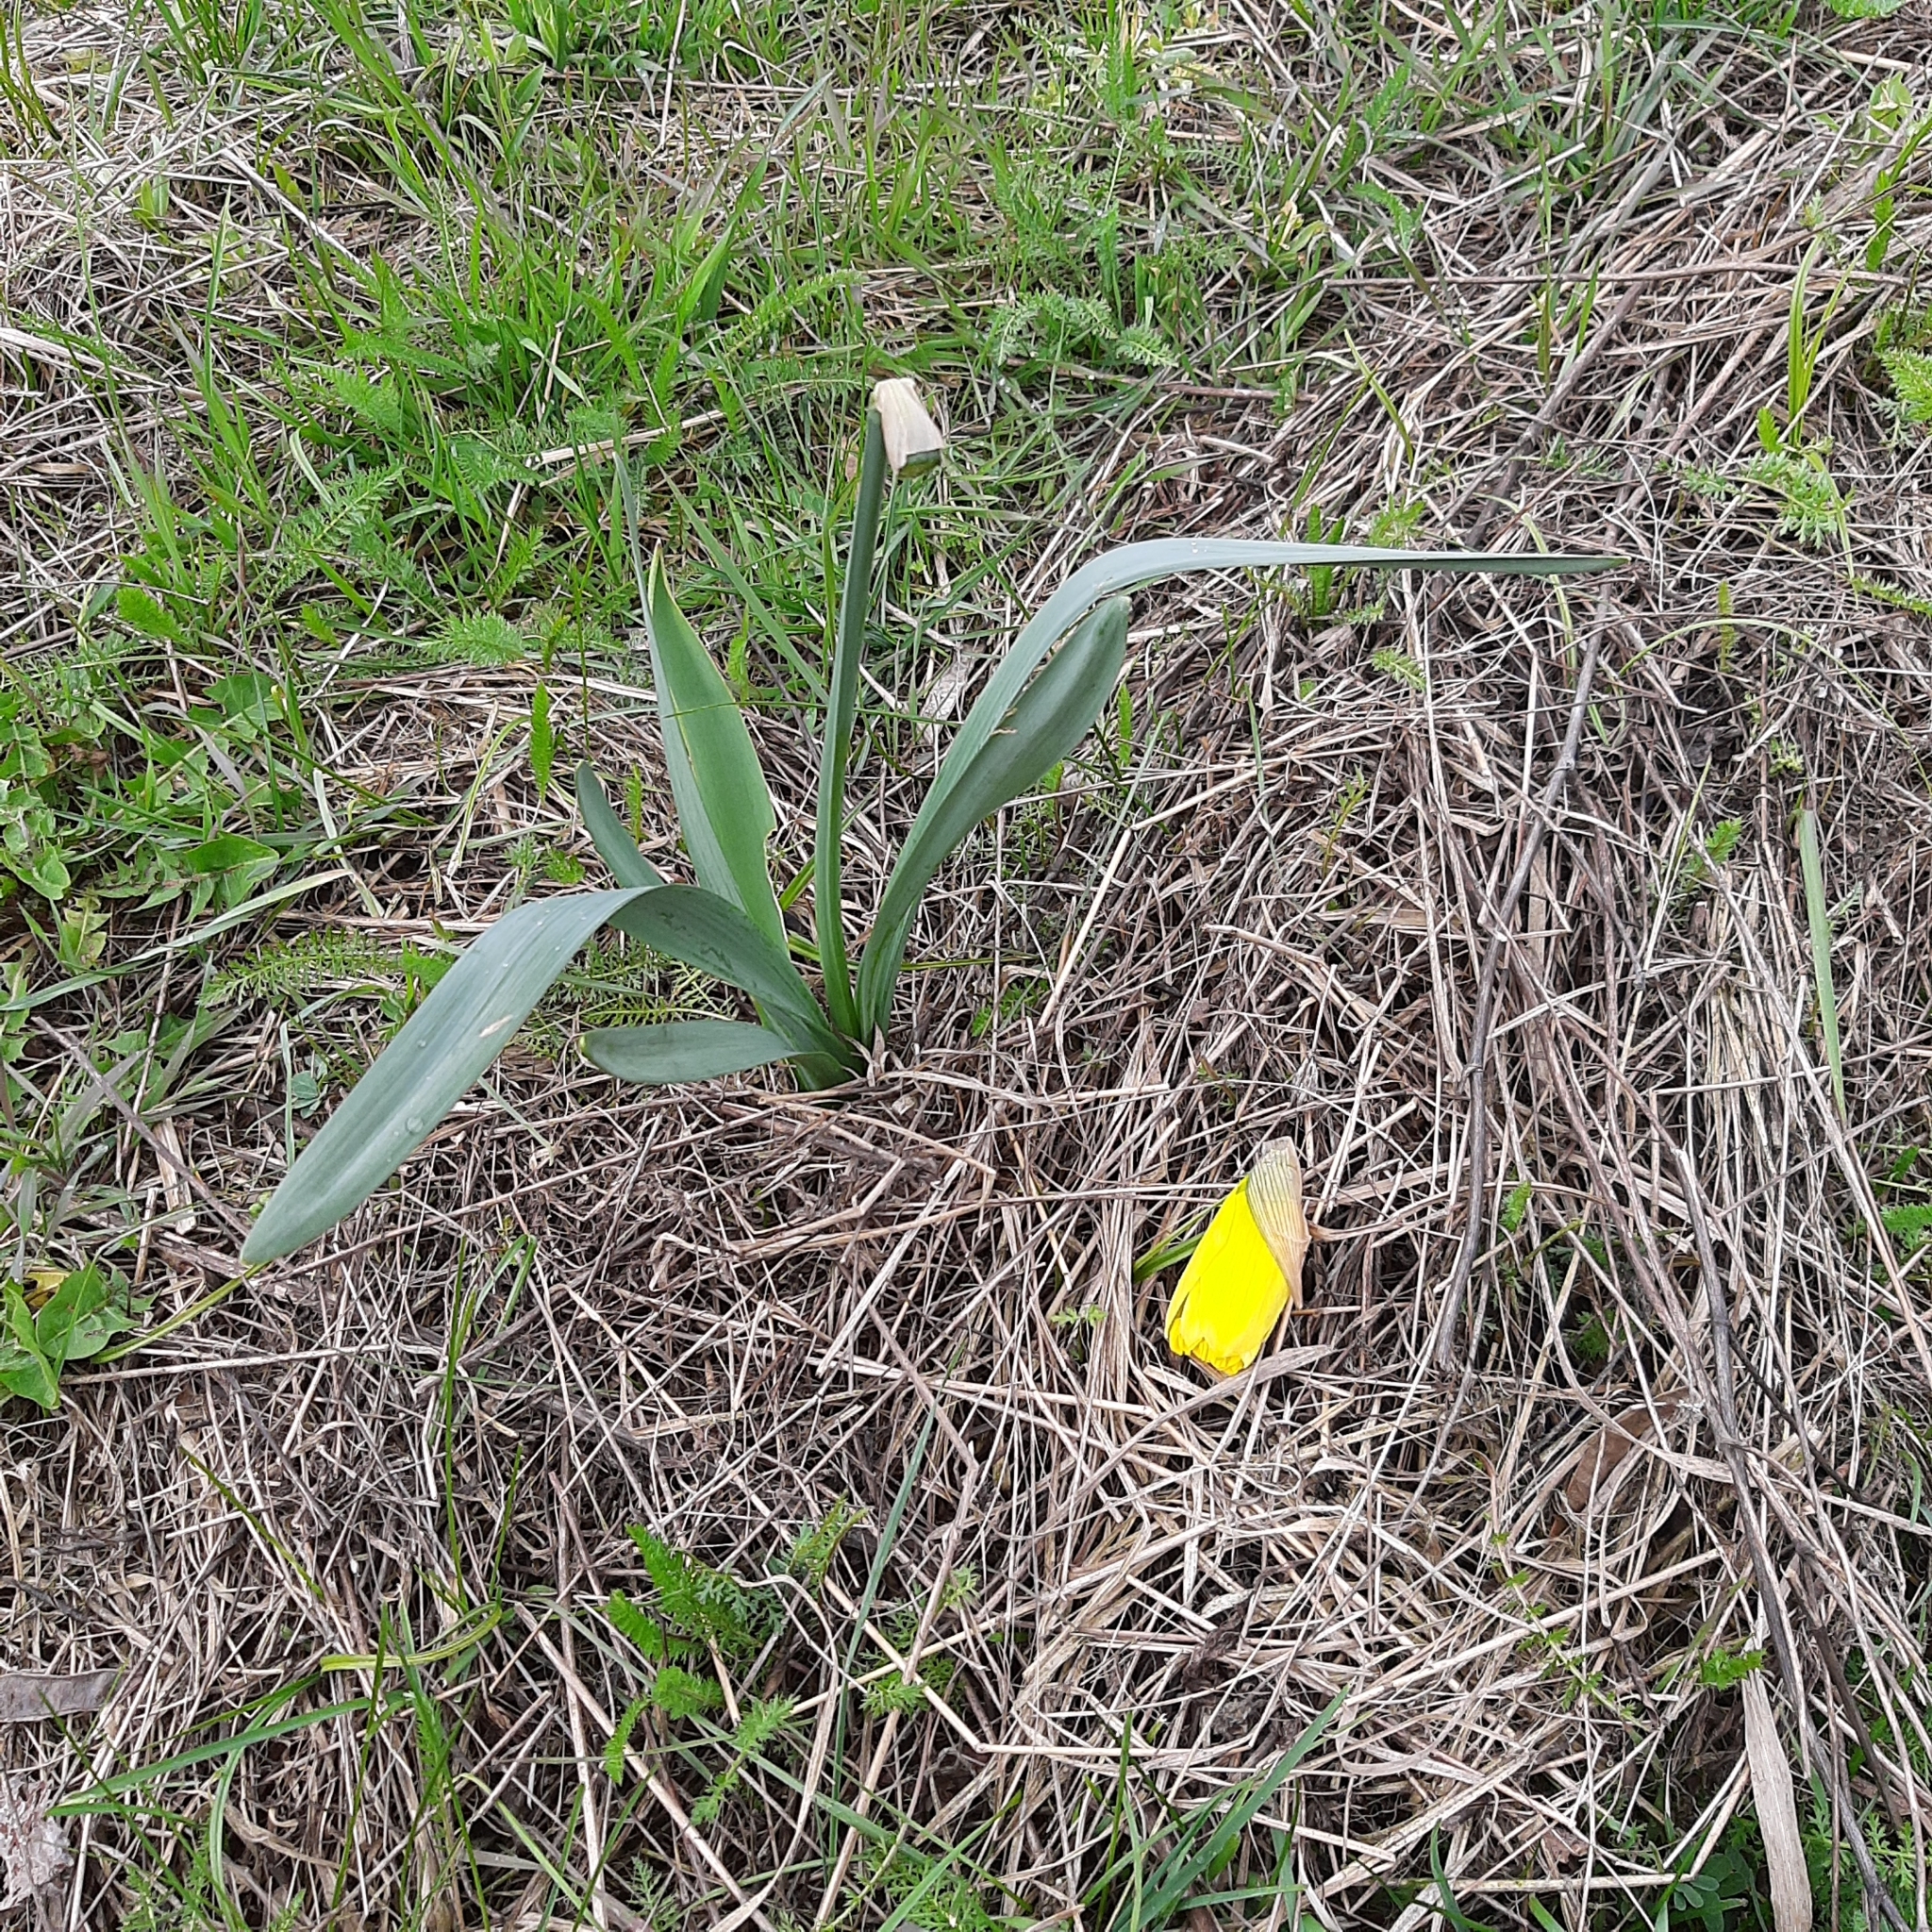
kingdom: Plantae
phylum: Tracheophyta
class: Liliopsida
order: Asparagales
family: Amaryllidaceae
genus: Narcissus
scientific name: Narcissus pseudonarcissus
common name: Daffodil
